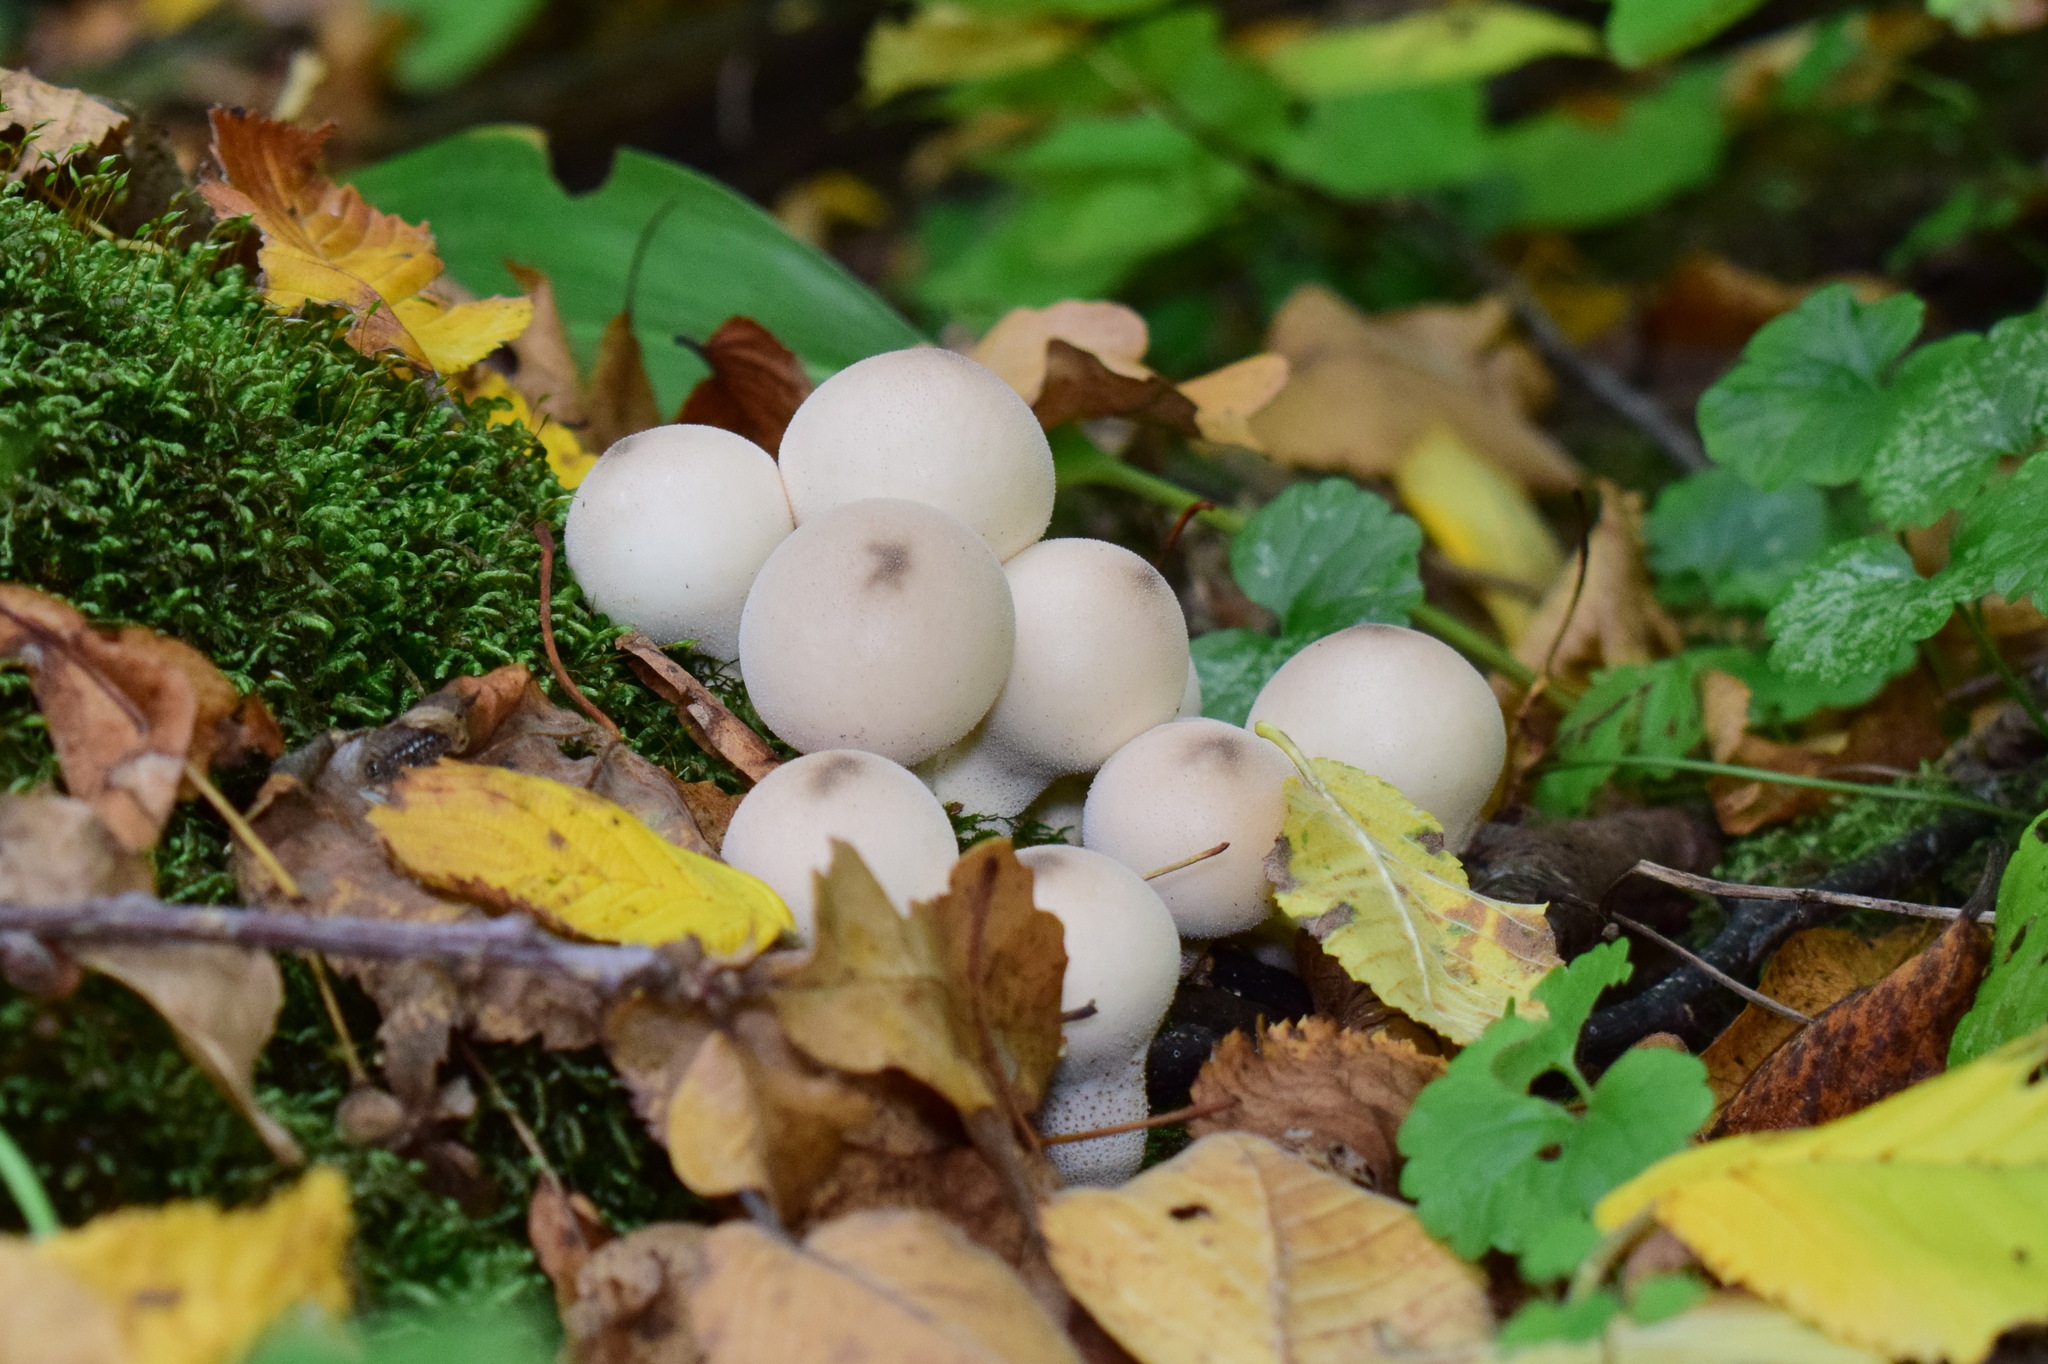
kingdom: Fungi
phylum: Basidiomycota
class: Agaricomycetes
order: Agaricales
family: Lycoperdaceae
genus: Apioperdon
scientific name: Apioperdon pyriforme
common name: Pear-shaped puffball
